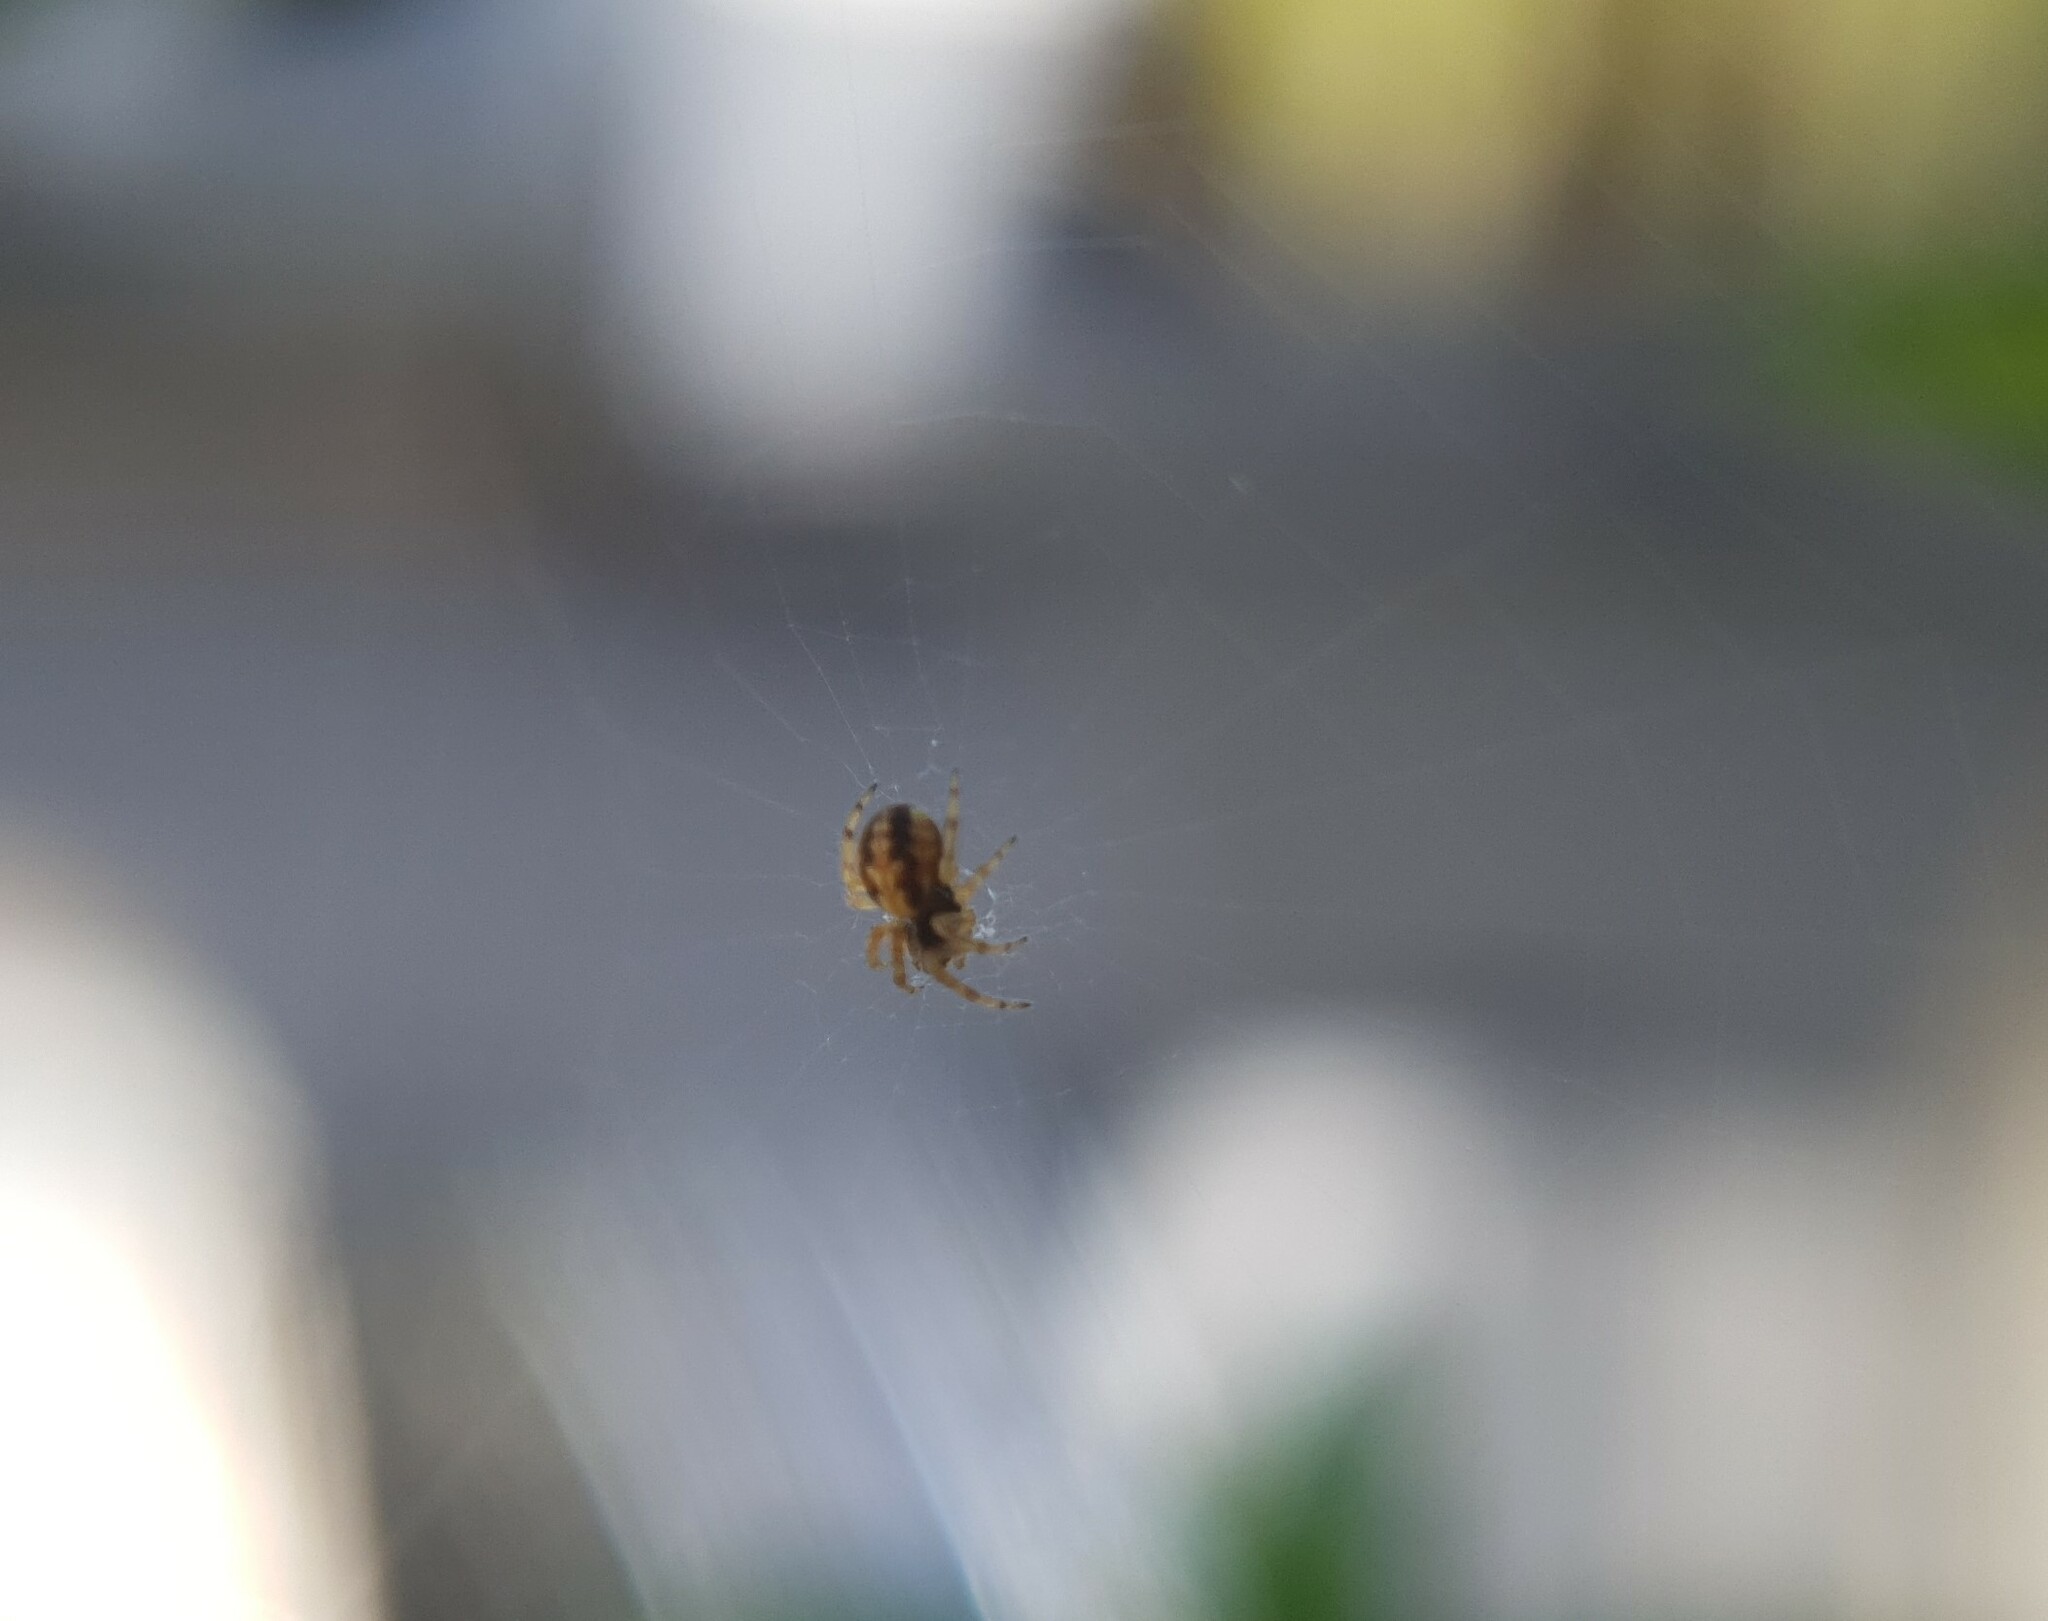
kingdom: Animalia
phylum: Arthropoda
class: Arachnida
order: Araneae
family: Araneidae
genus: Aculepeira
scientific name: Aculepeira ceropegia
